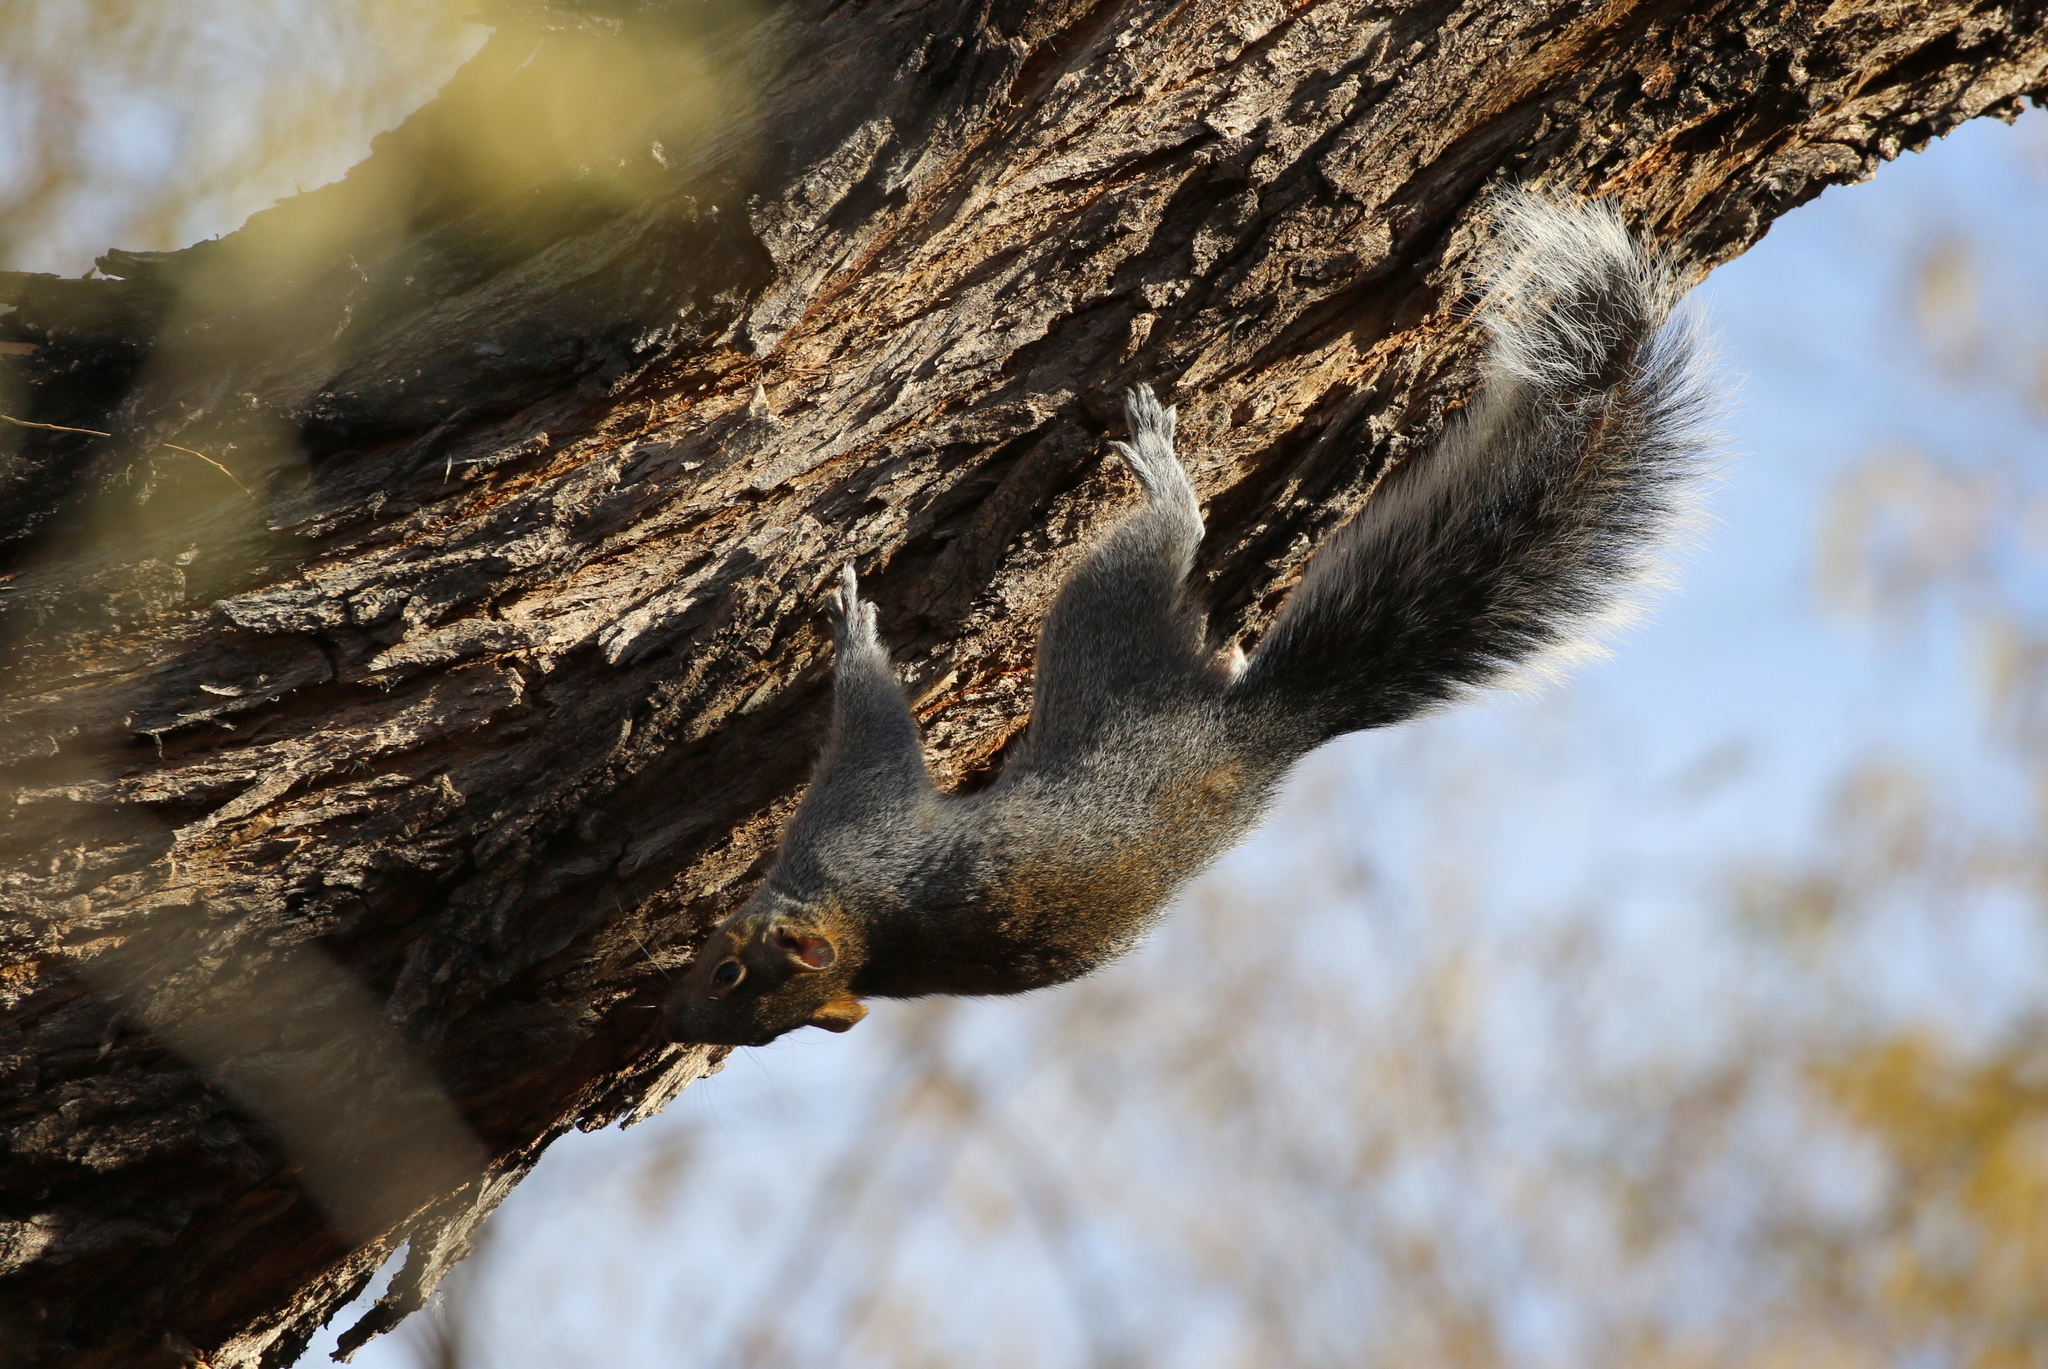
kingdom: Animalia
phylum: Chordata
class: Mammalia
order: Rodentia
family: Sciuridae
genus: Sciurus
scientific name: Sciurus arizonensis
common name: Arizona gray squirrel
